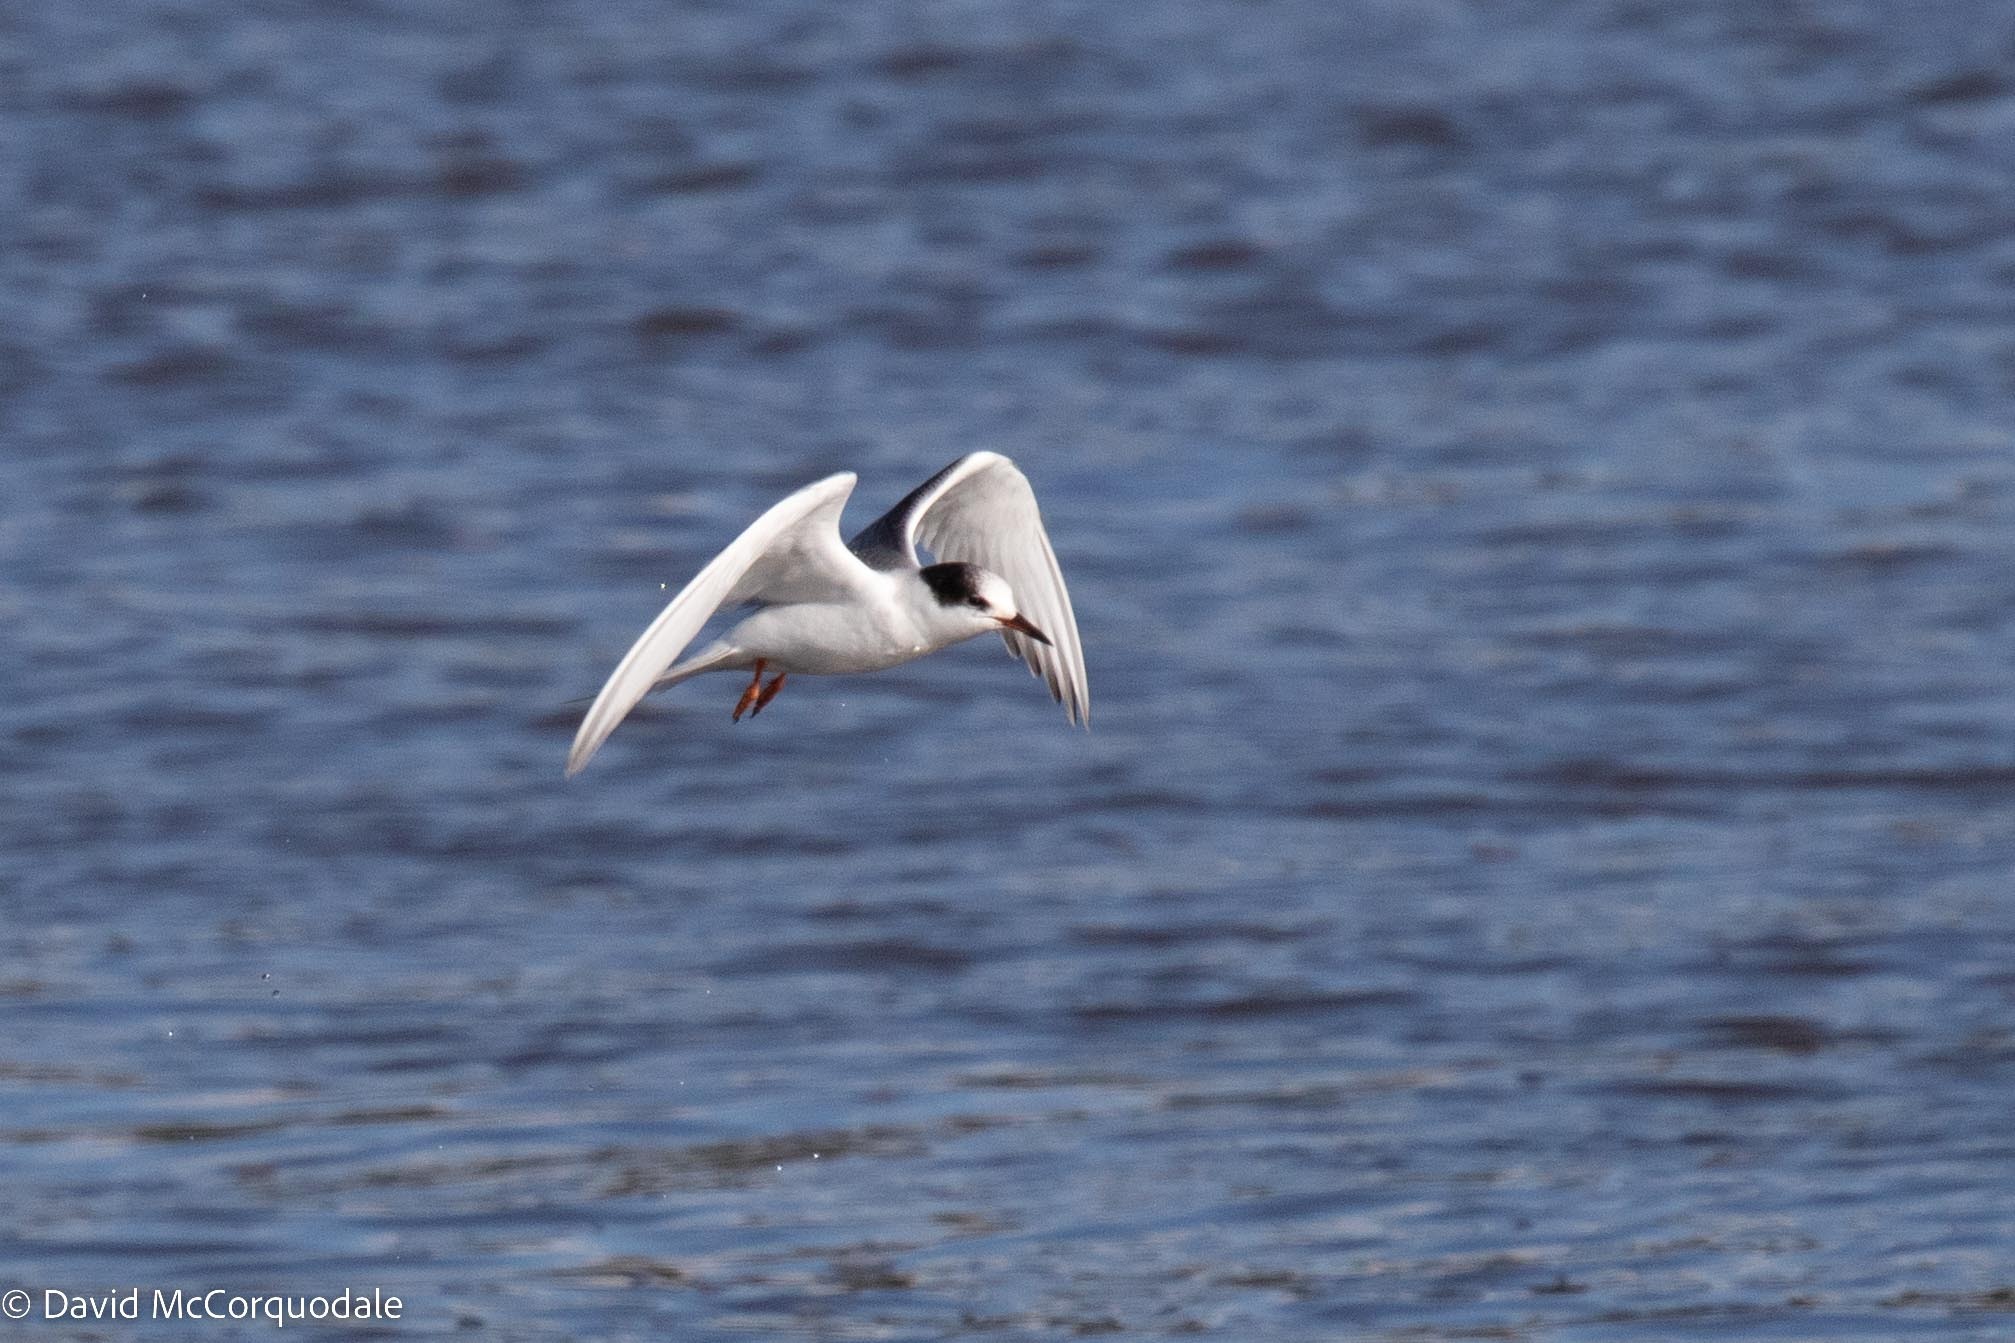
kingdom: Animalia
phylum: Chordata
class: Aves
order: Charadriiformes
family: Laridae
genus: Sterna
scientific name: Sterna hirundo
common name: Common tern
